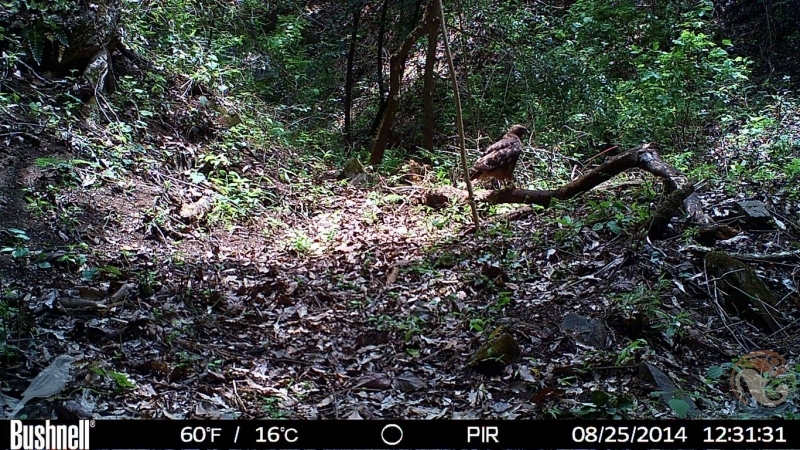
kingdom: Animalia
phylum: Chordata
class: Aves
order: Accipitriformes
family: Accipitridae
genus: Buteo
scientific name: Buteo jamaicensis
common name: Red-tailed hawk
